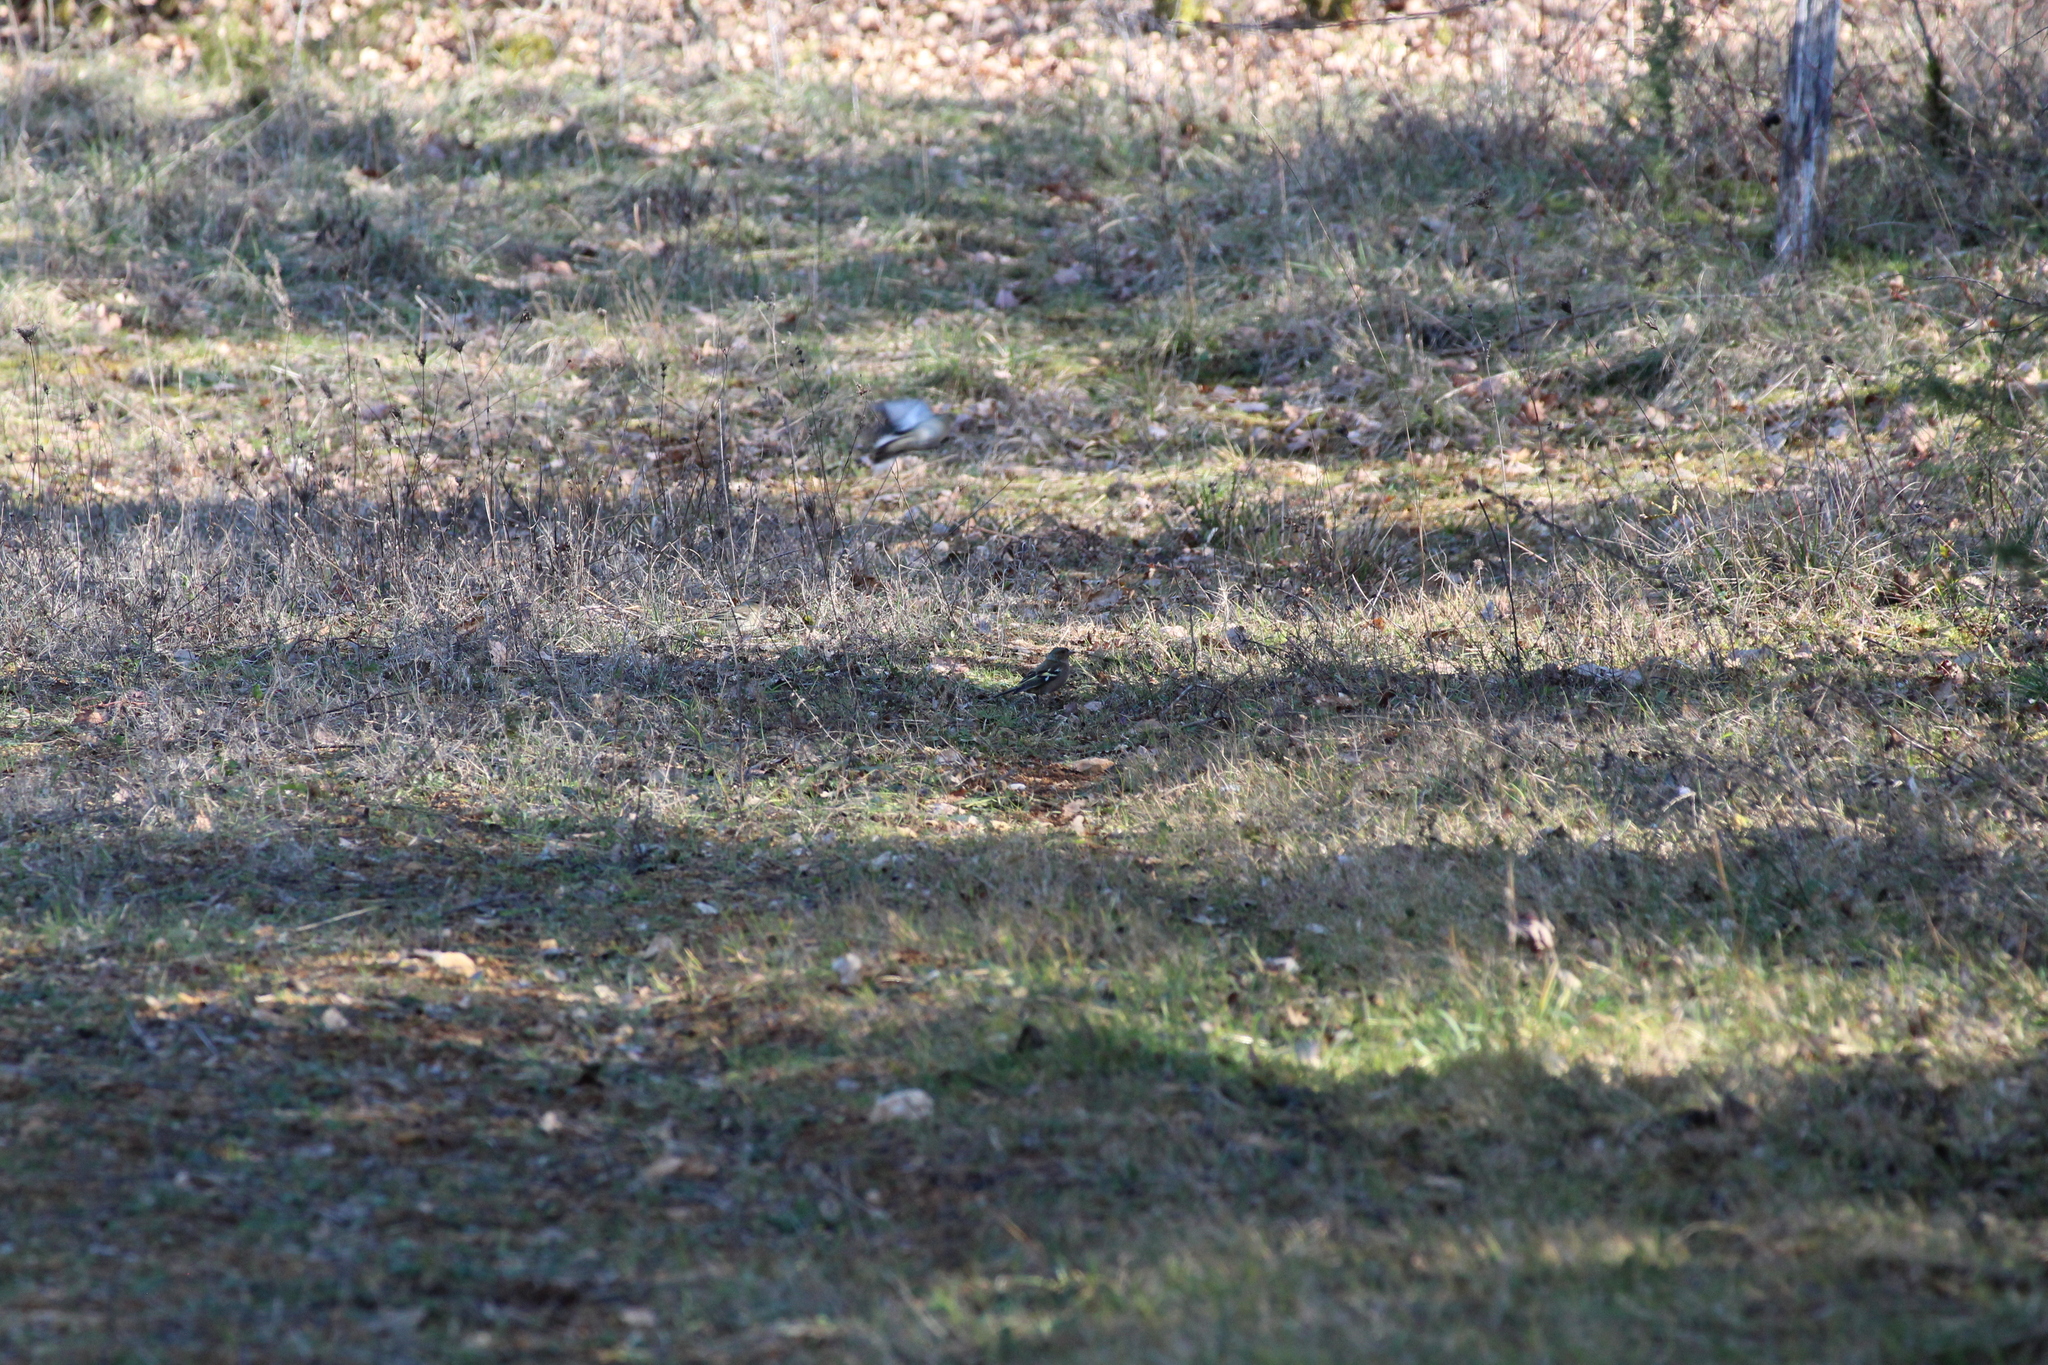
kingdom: Animalia
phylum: Chordata
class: Aves
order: Passeriformes
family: Fringillidae
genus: Fringilla
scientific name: Fringilla coelebs
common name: Common chaffinch
